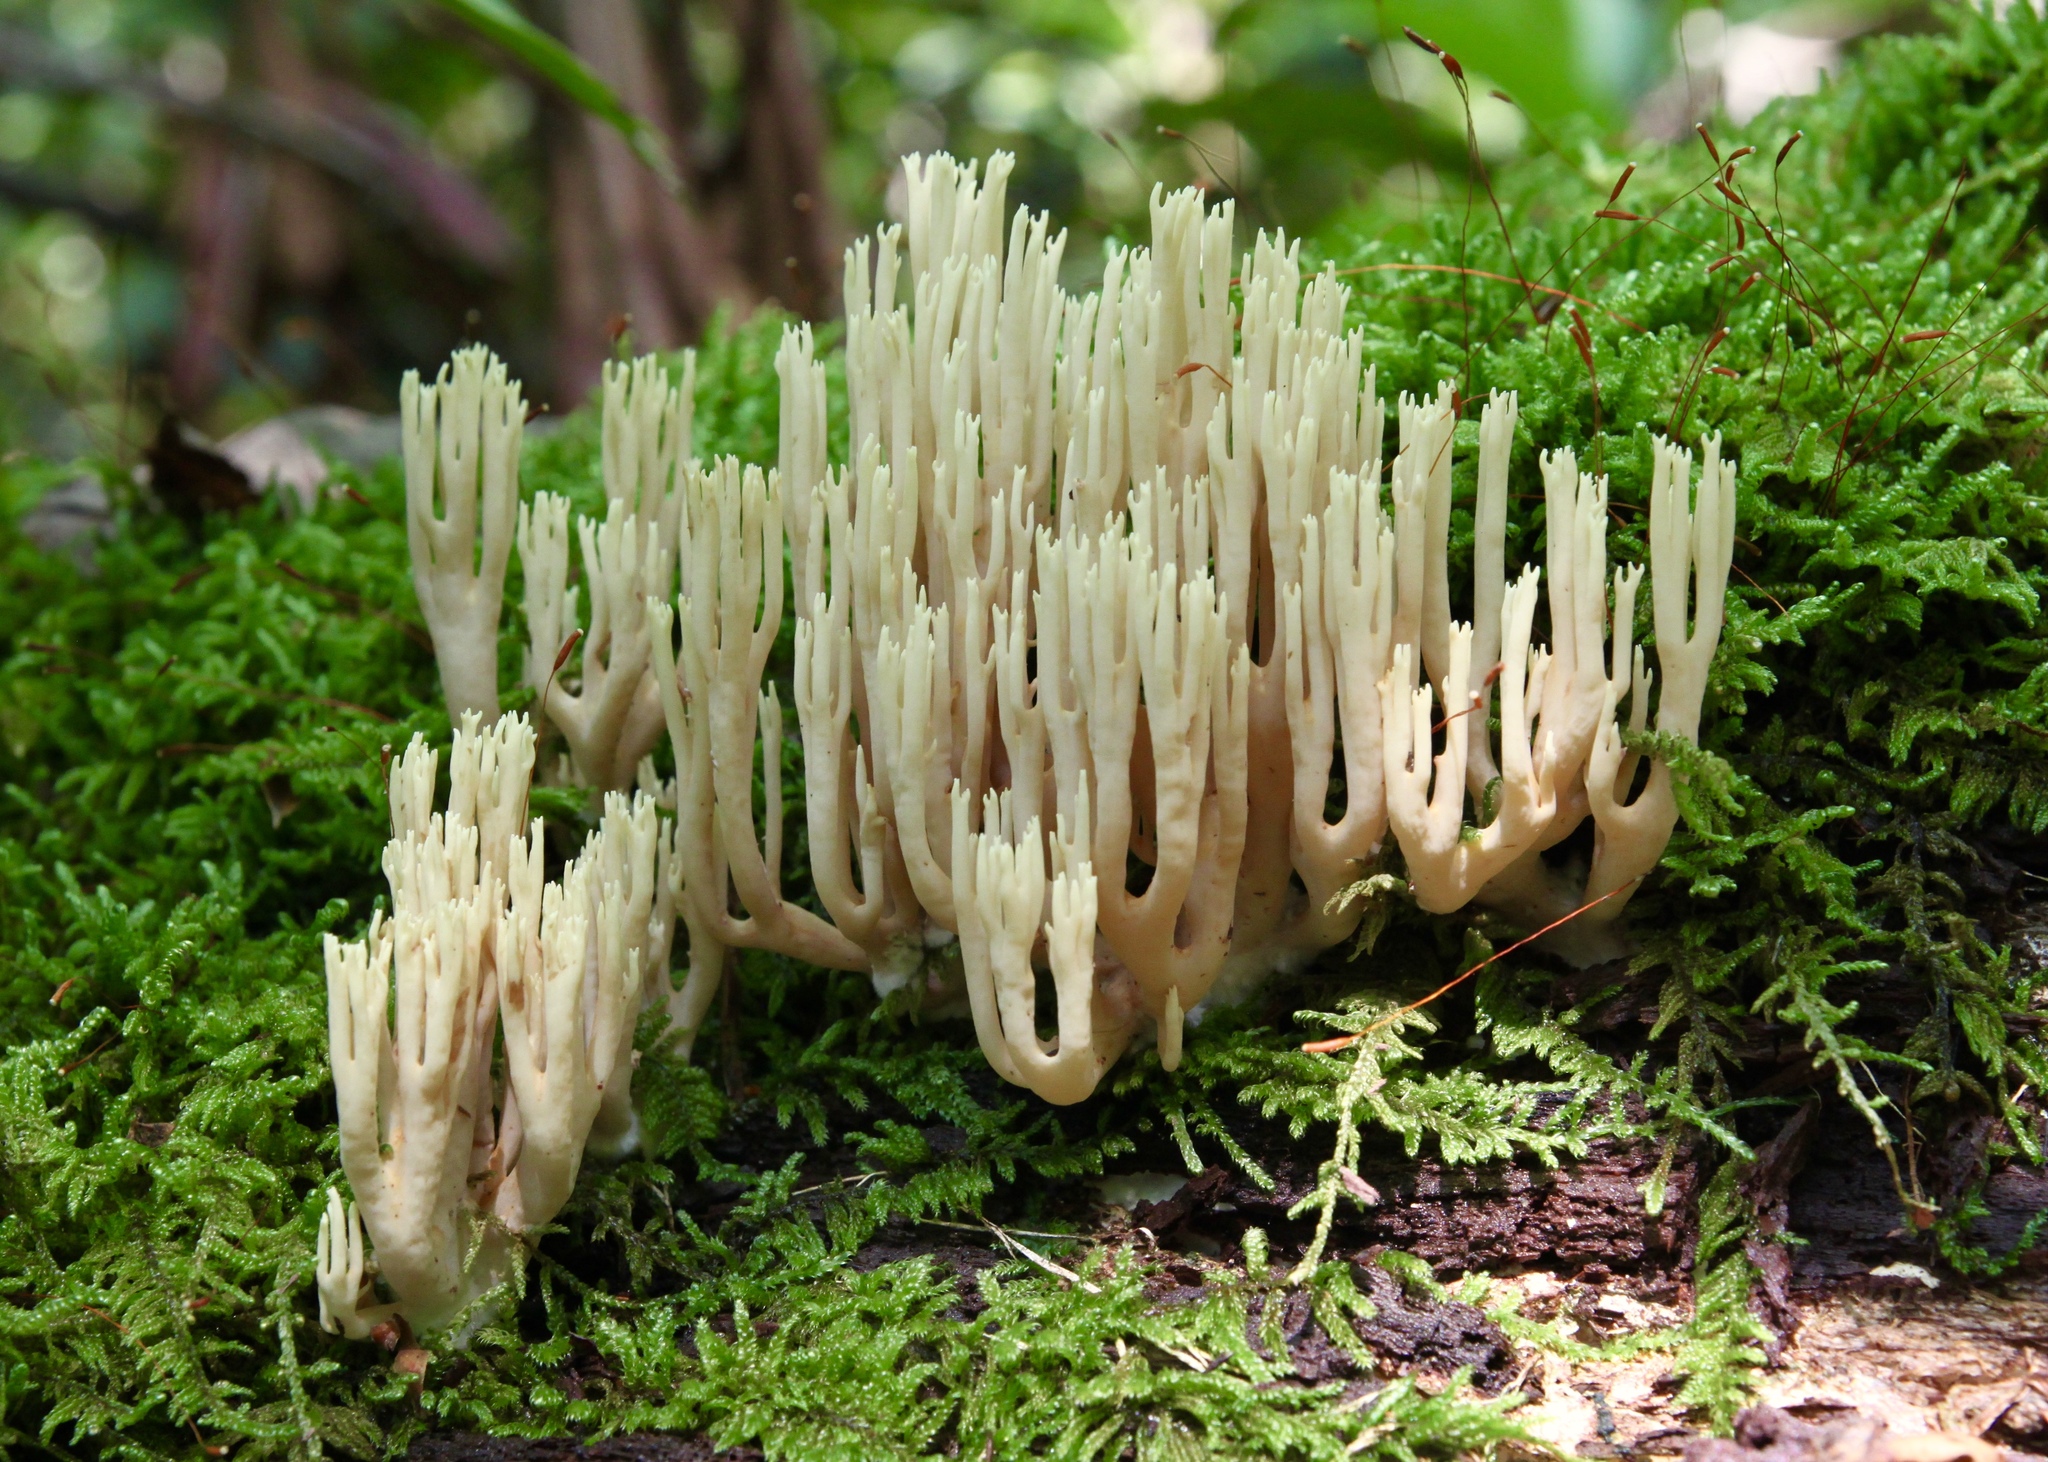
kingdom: Fungi
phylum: Basidiomycota
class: Agaricomycetes
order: Gomphales
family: Gomphaceae
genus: Ramaria
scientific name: Ramaria stricta
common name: Upright coral
